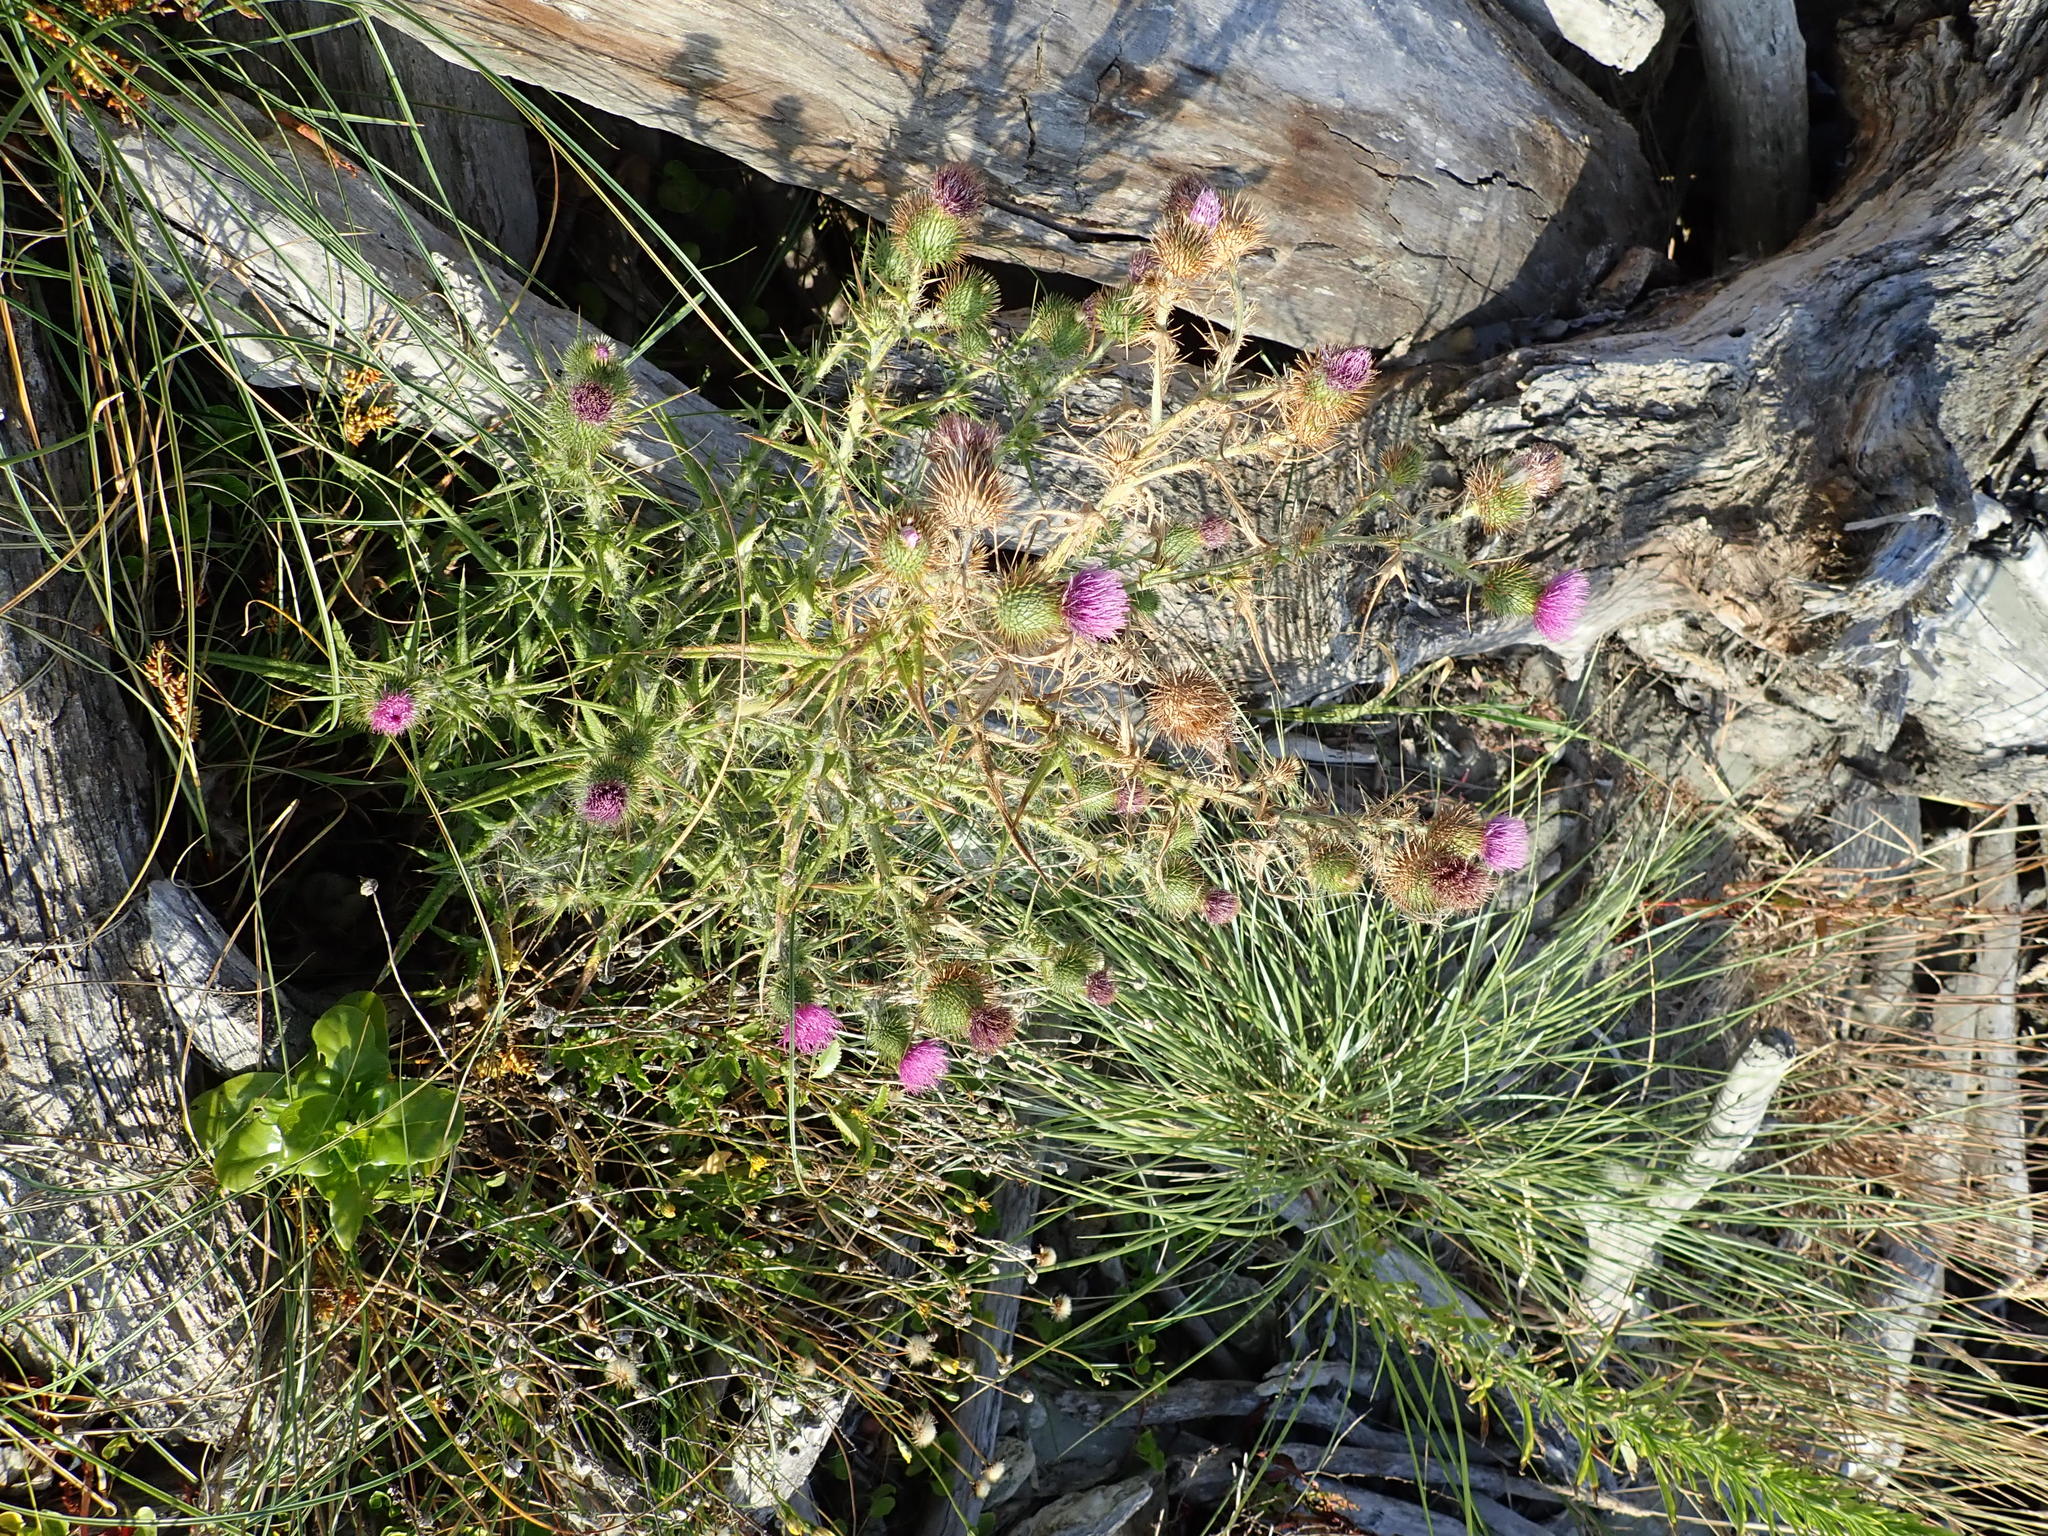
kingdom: Plantae
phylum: Tracheophyta
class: Magnoliopsida
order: Asterales
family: Asteraceae
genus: Cirsium
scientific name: Cirsium vulgare
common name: Bull thistle
